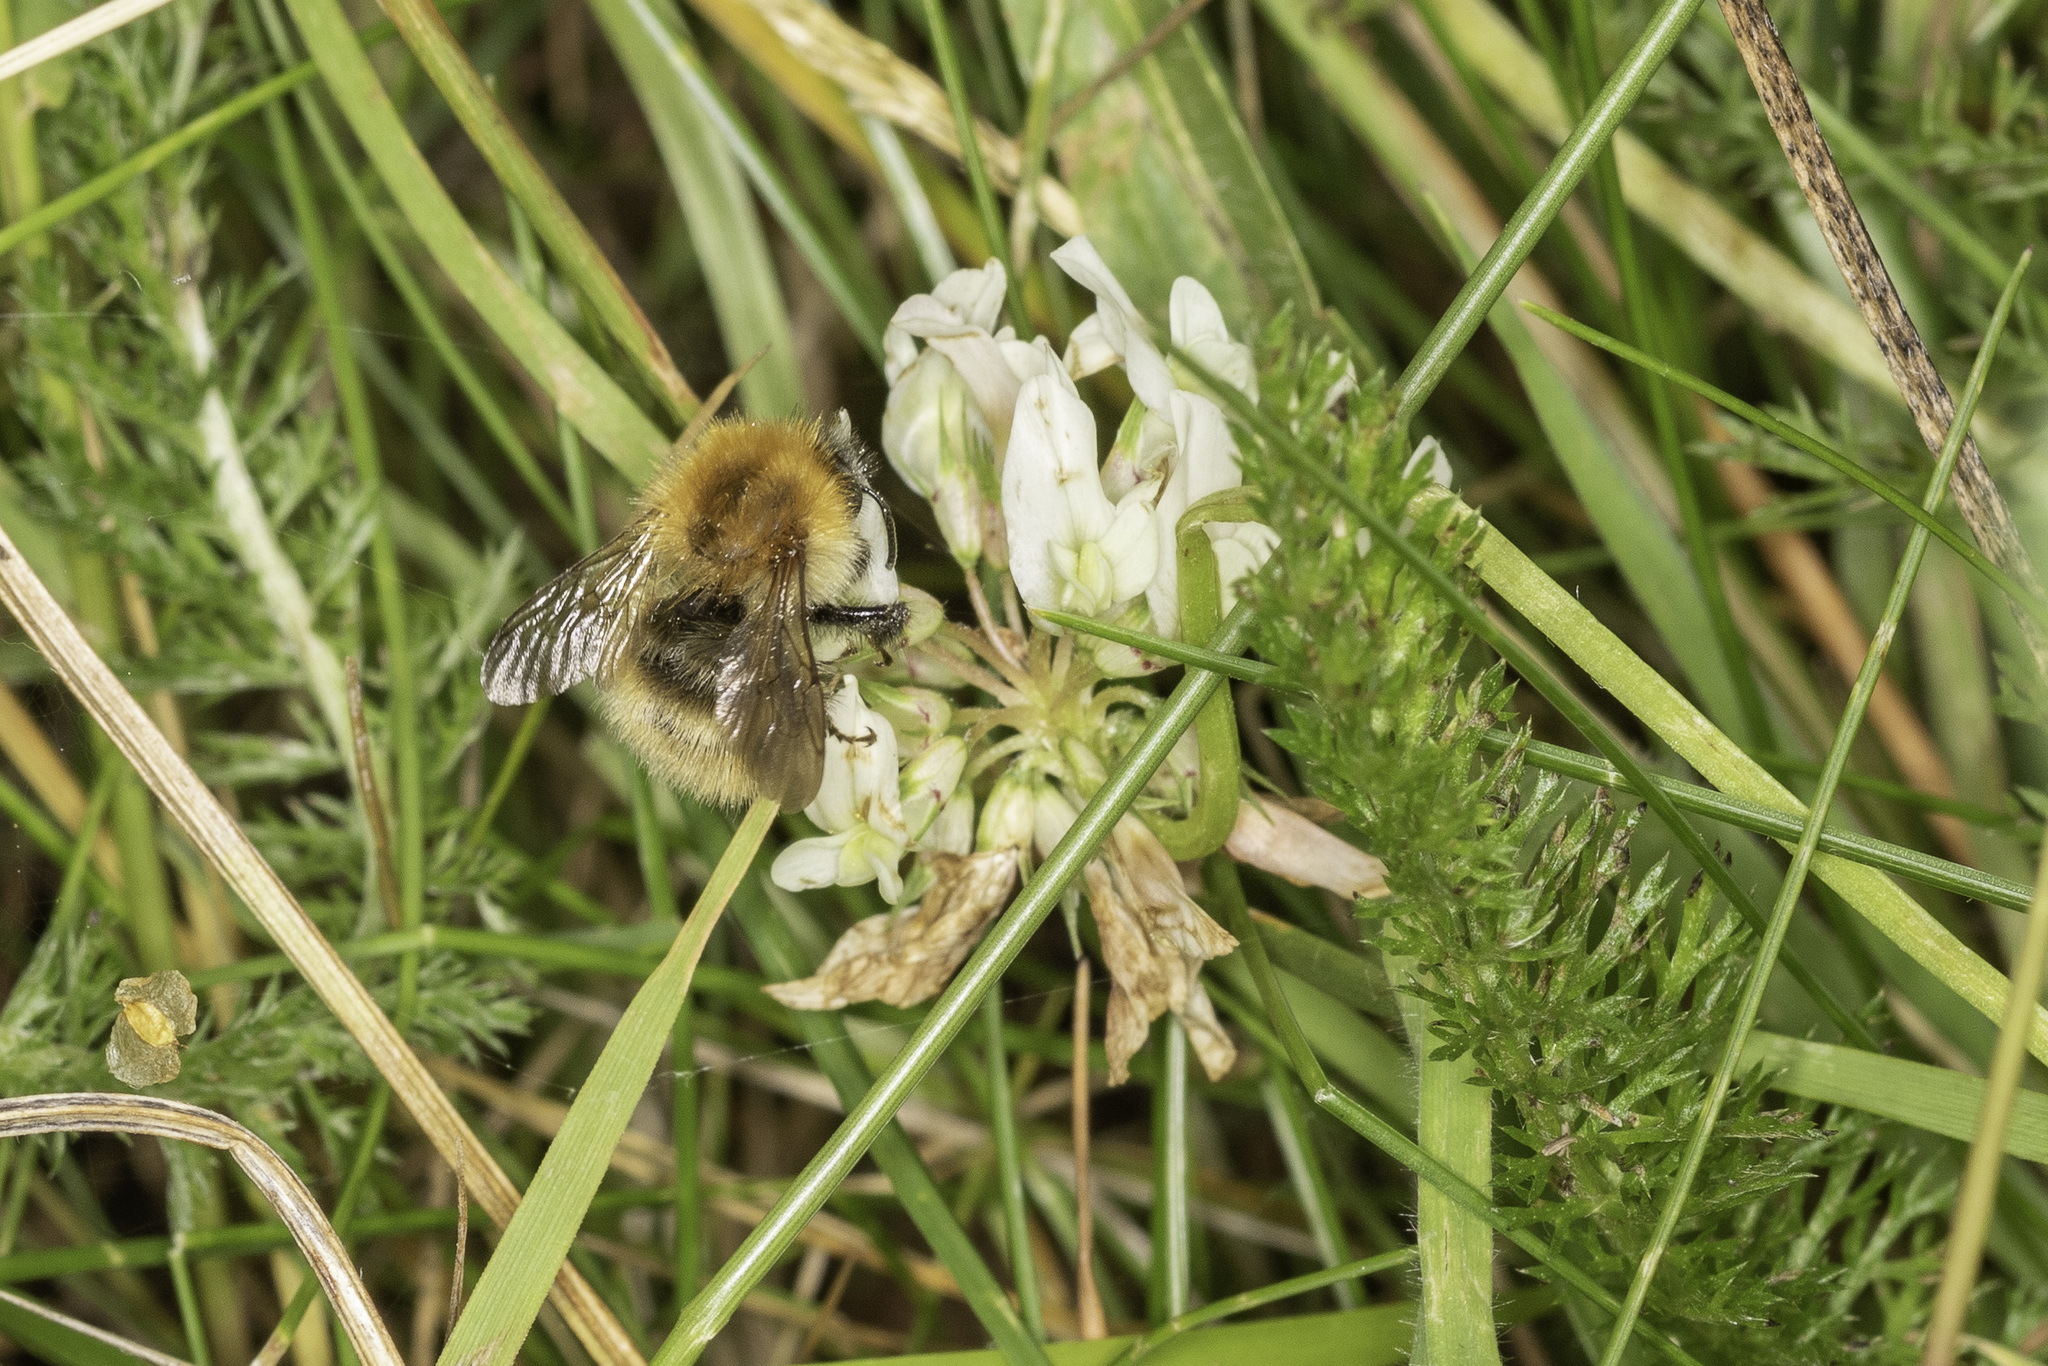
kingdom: Animalia
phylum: Arthropoda
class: Insecta
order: Hymenoptera
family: Apidae
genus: Bombus
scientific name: Bombus pascuorum
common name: Common carder bee
